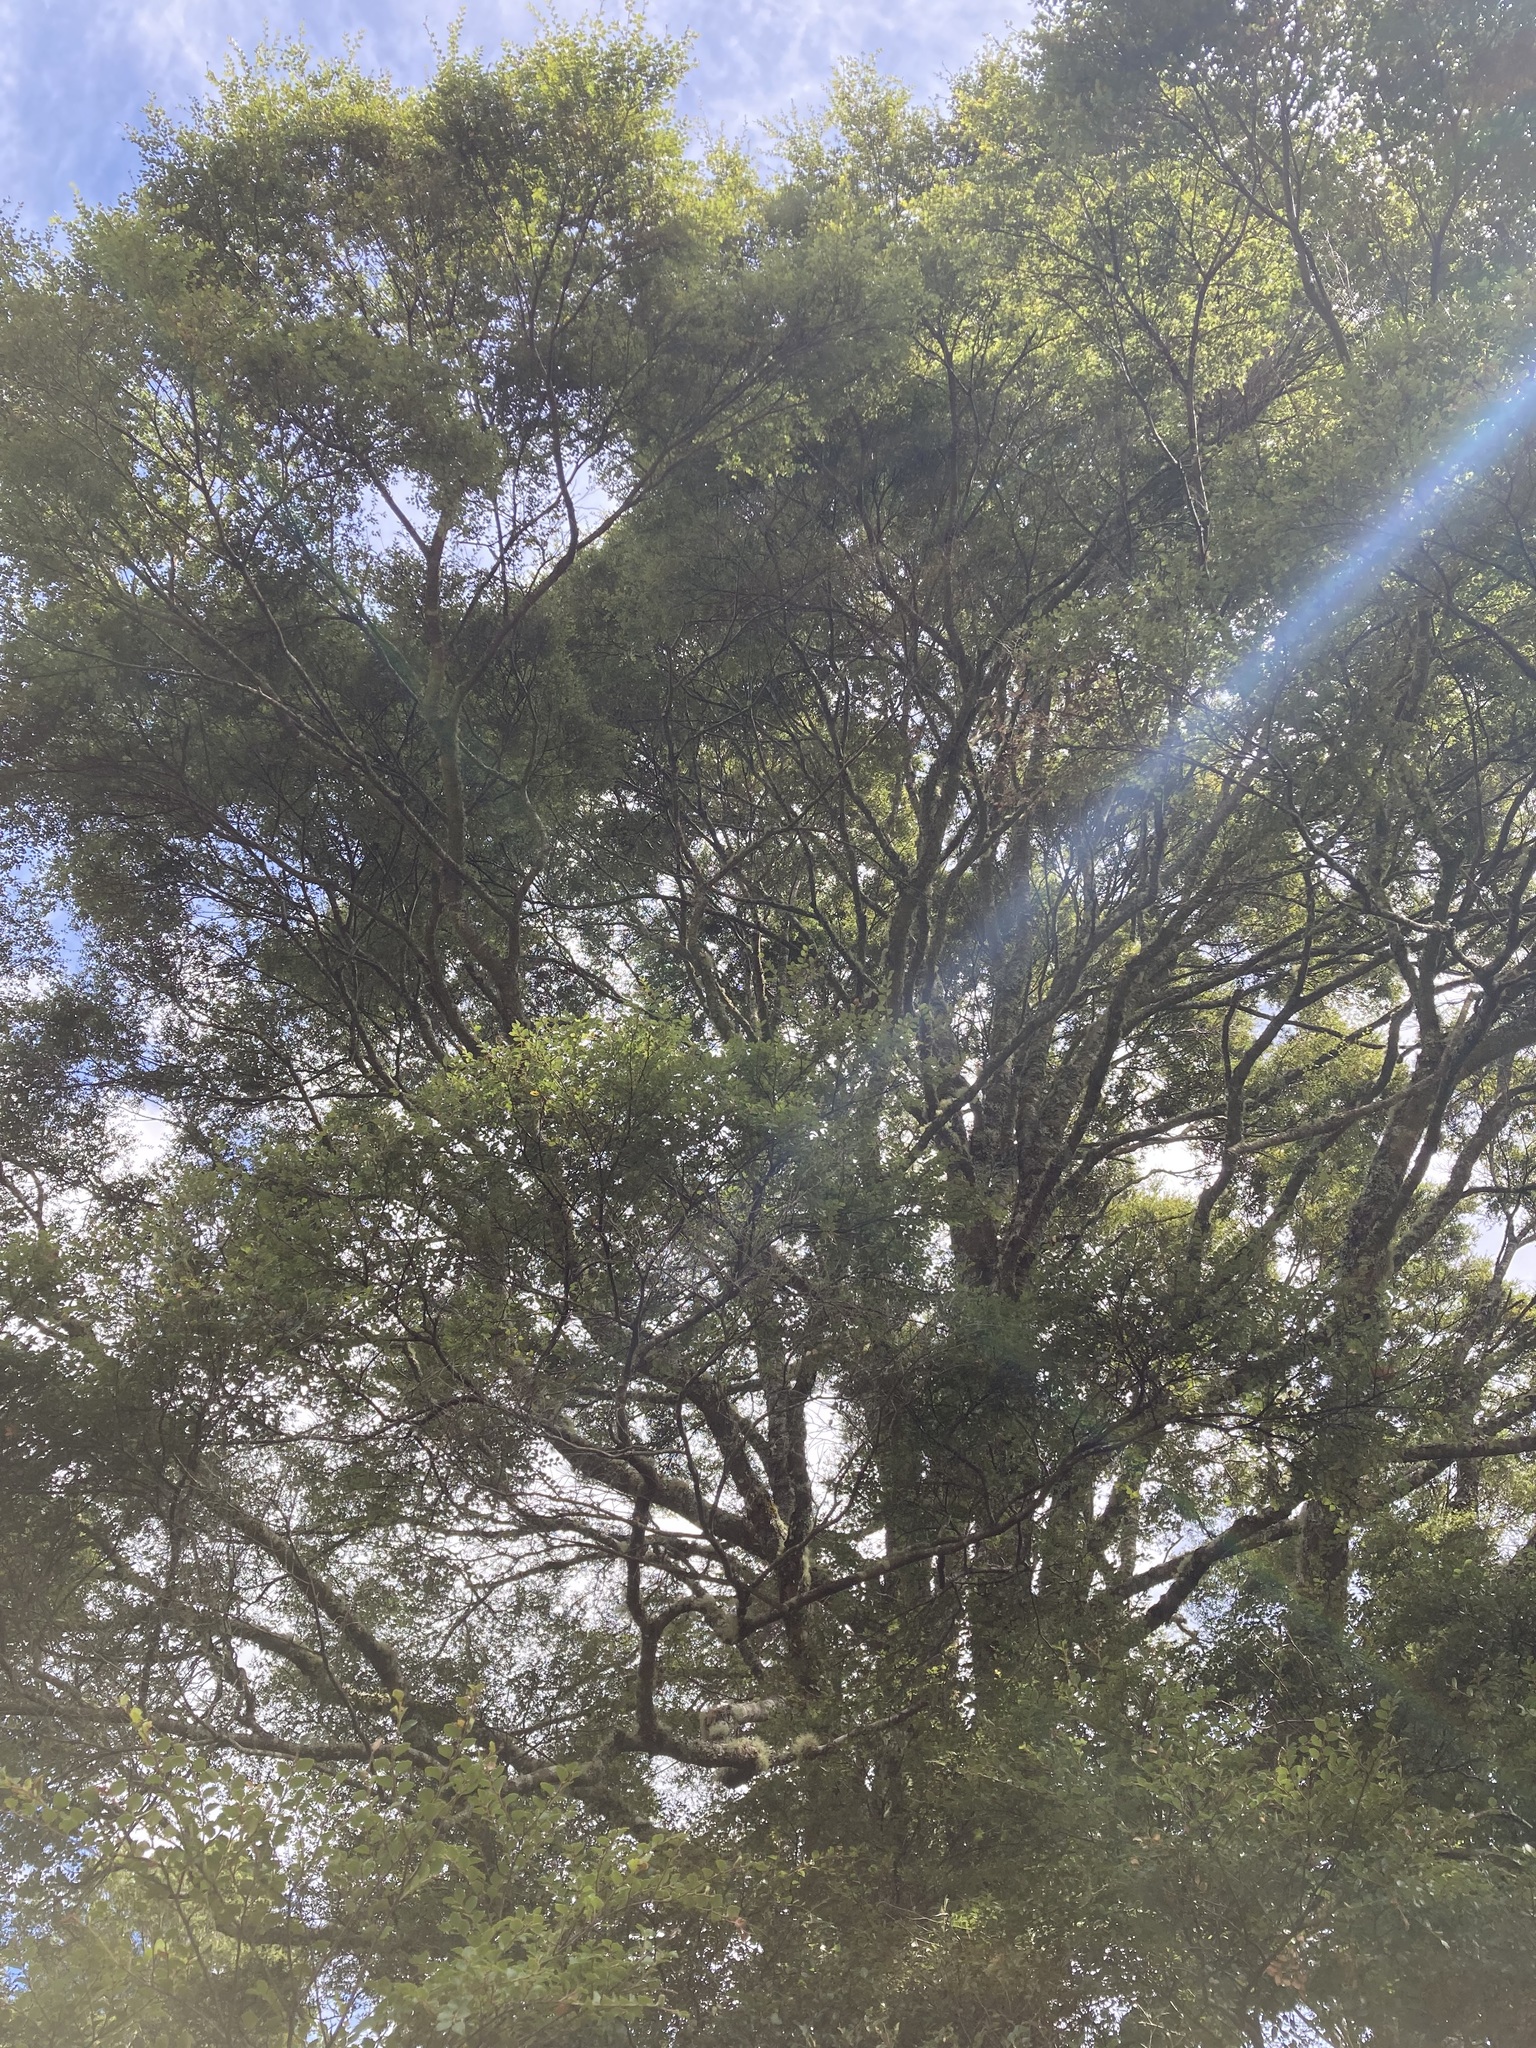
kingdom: Plantae
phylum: Tracheophyta
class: Magnoliopsida
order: Fagales
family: Nothofagaceae
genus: Nothofagus
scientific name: Nothofagus menziesii
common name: Silver beech
